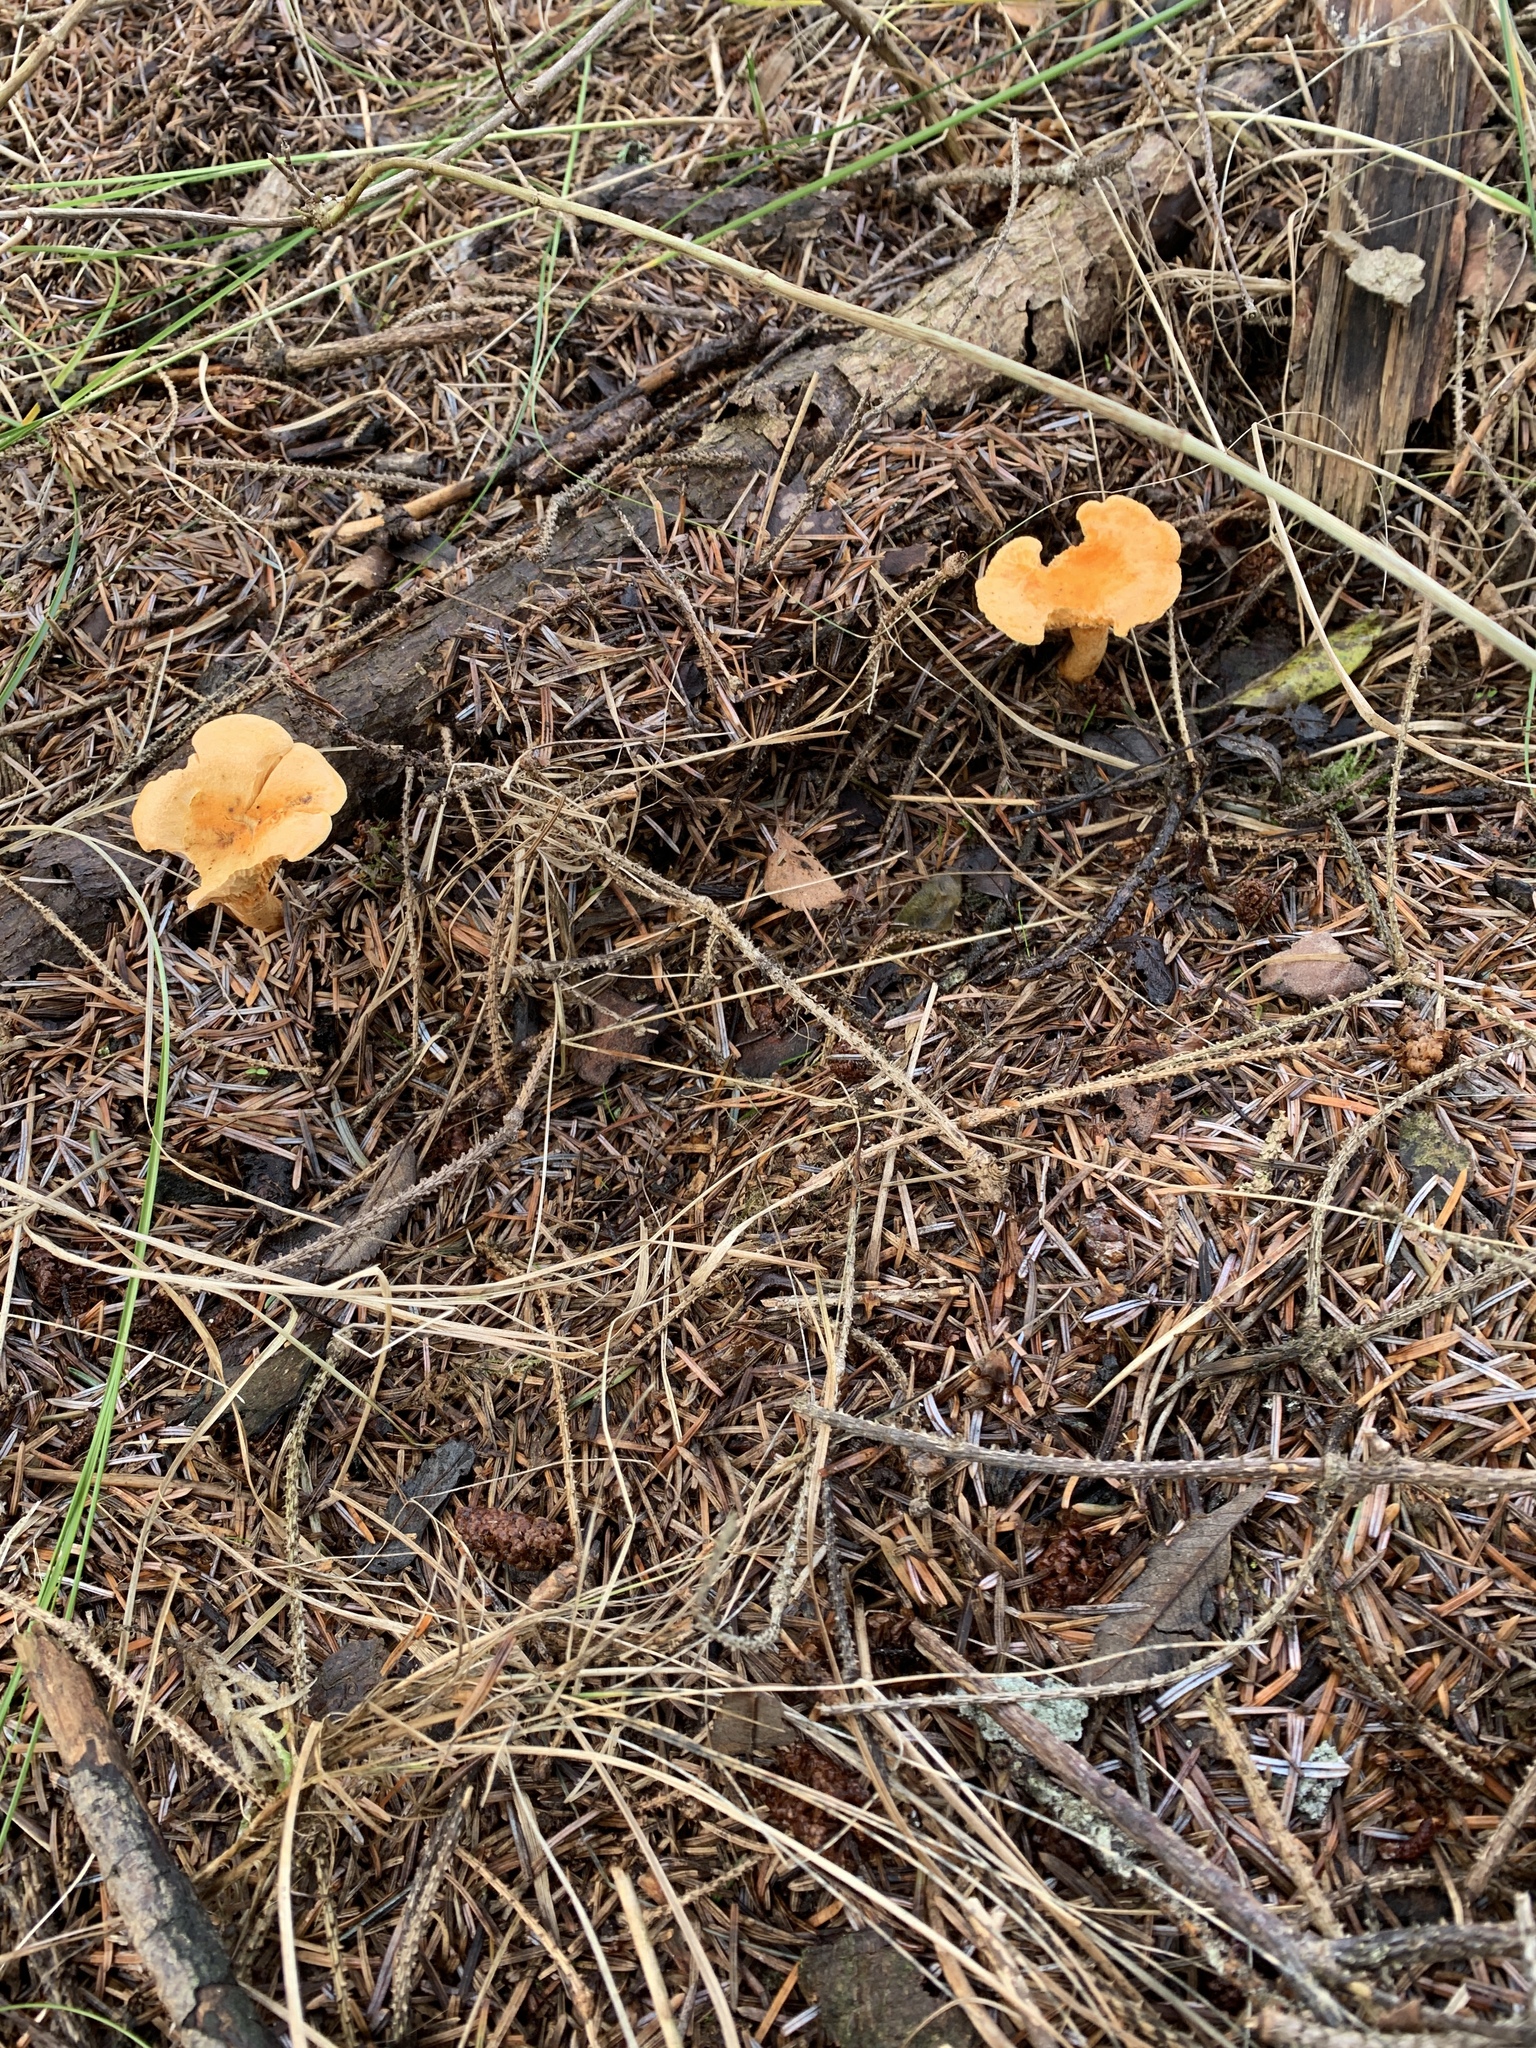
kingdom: Fungi
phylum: Basidiomycota
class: Agaricomycetes
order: Boletales
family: Hygrophoropsidaceae
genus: Hygrophoropsis
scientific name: Hygrophoropsis aurantiaca
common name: False chanterelle
